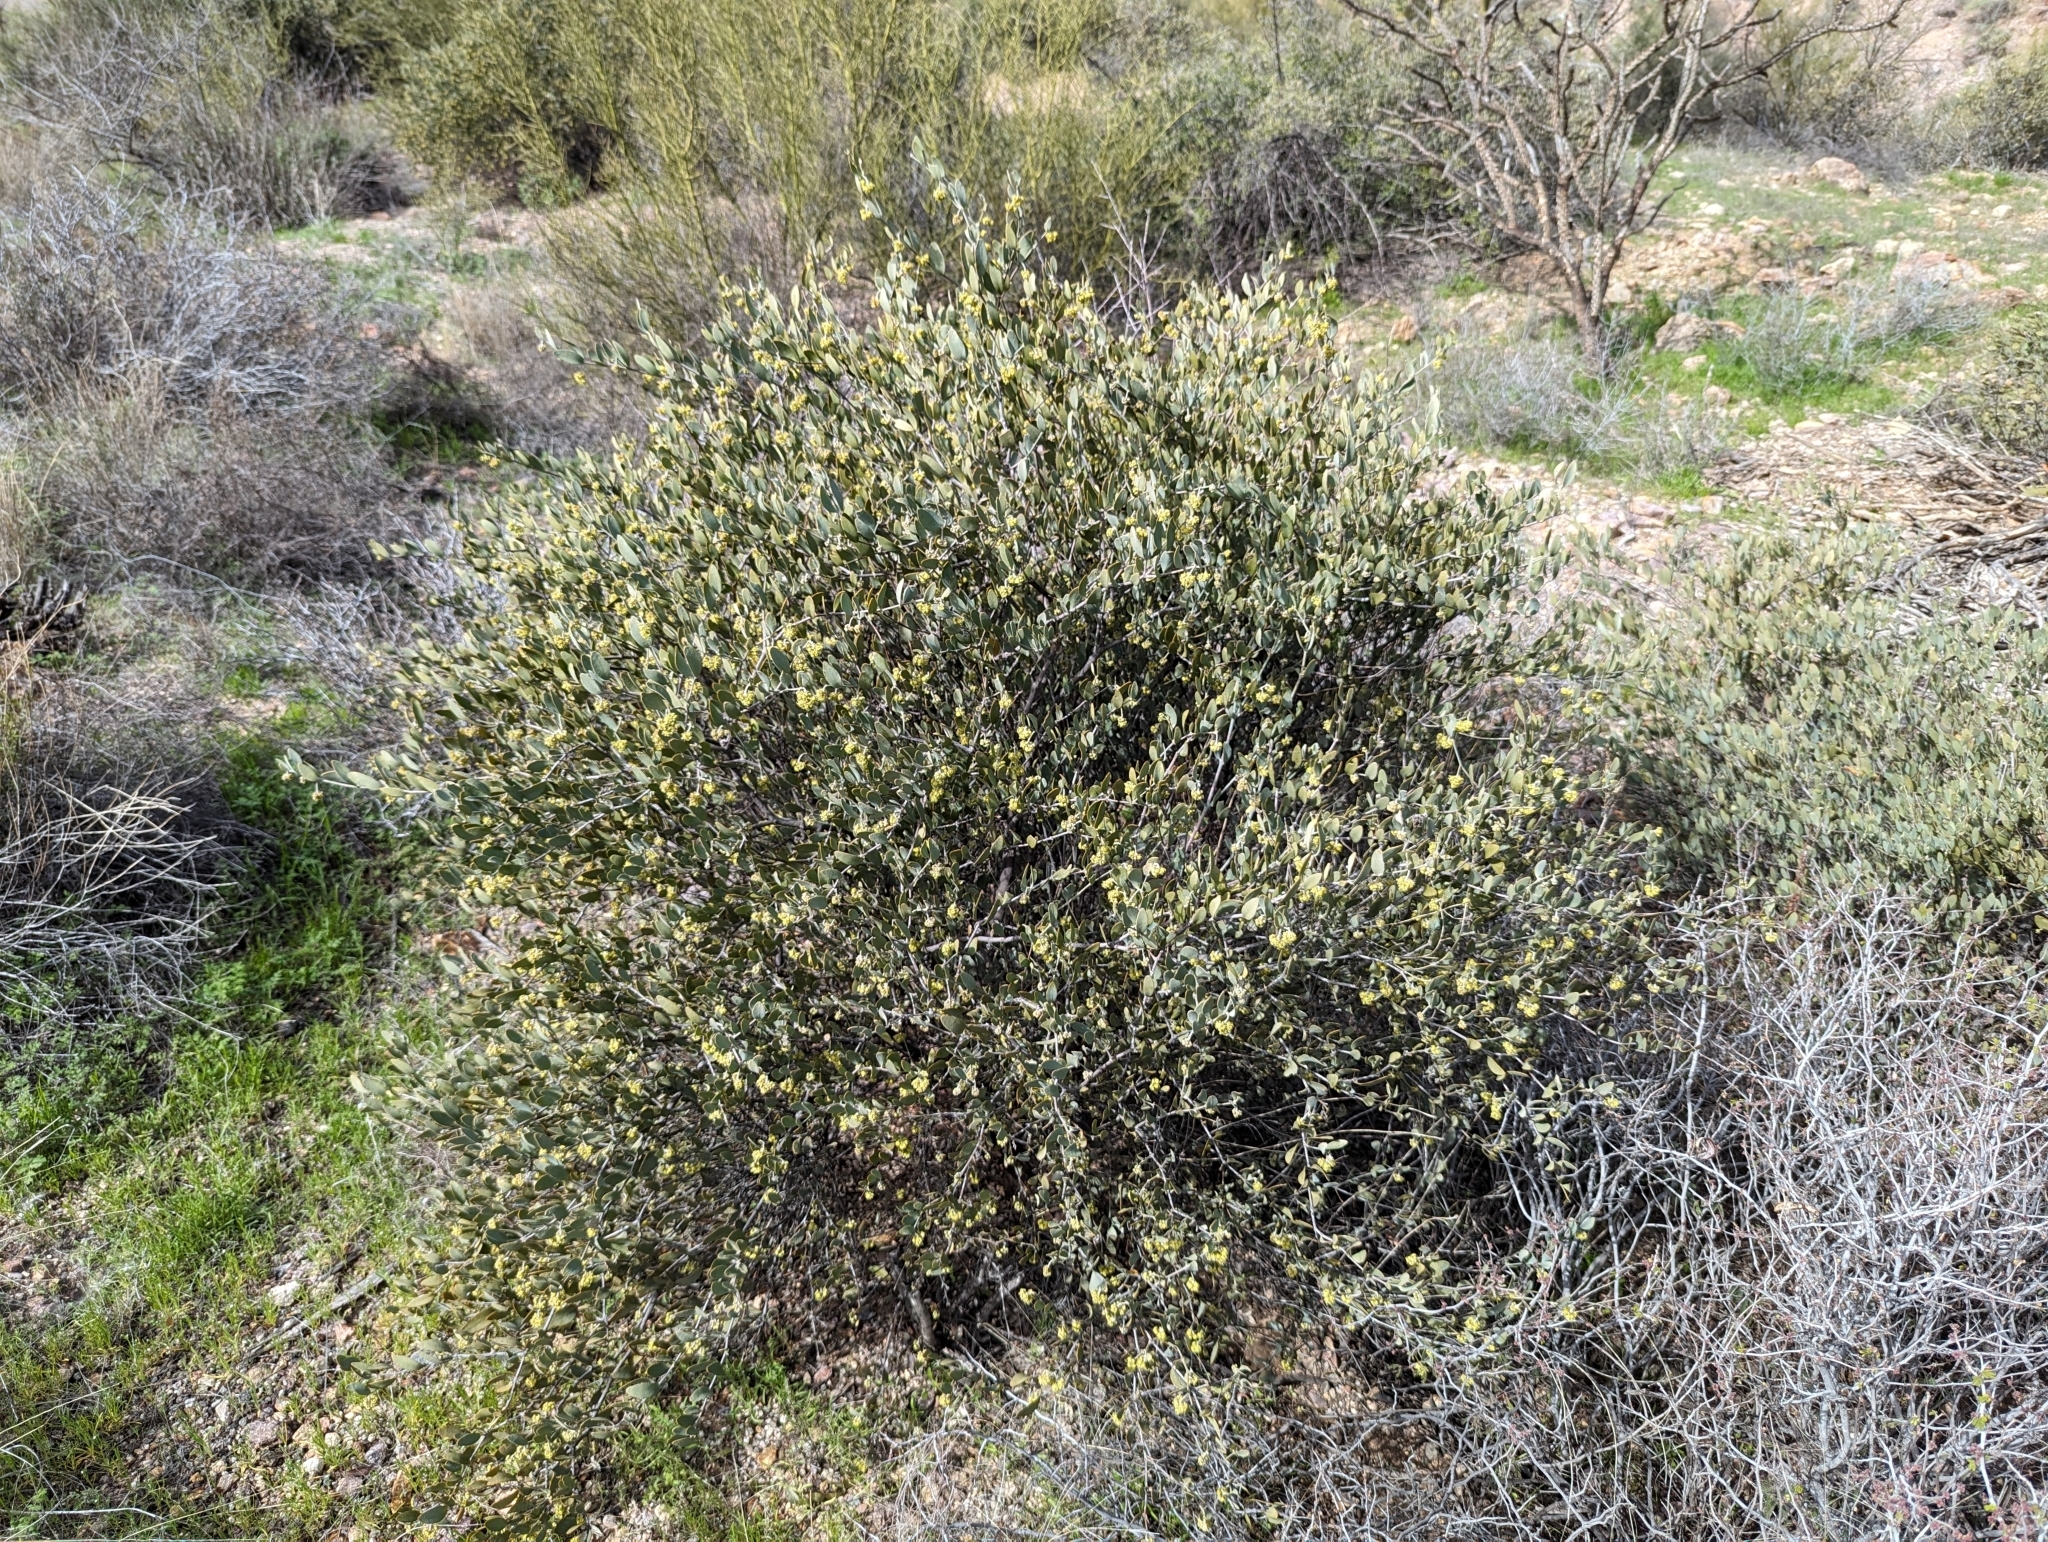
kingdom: Plantae
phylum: Tracheophyta
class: Magnoliopsida
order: Caryophyllales
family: Simmondsiaceae
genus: Simmondsia
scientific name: Simmondsia chinensis
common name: Jojoba
